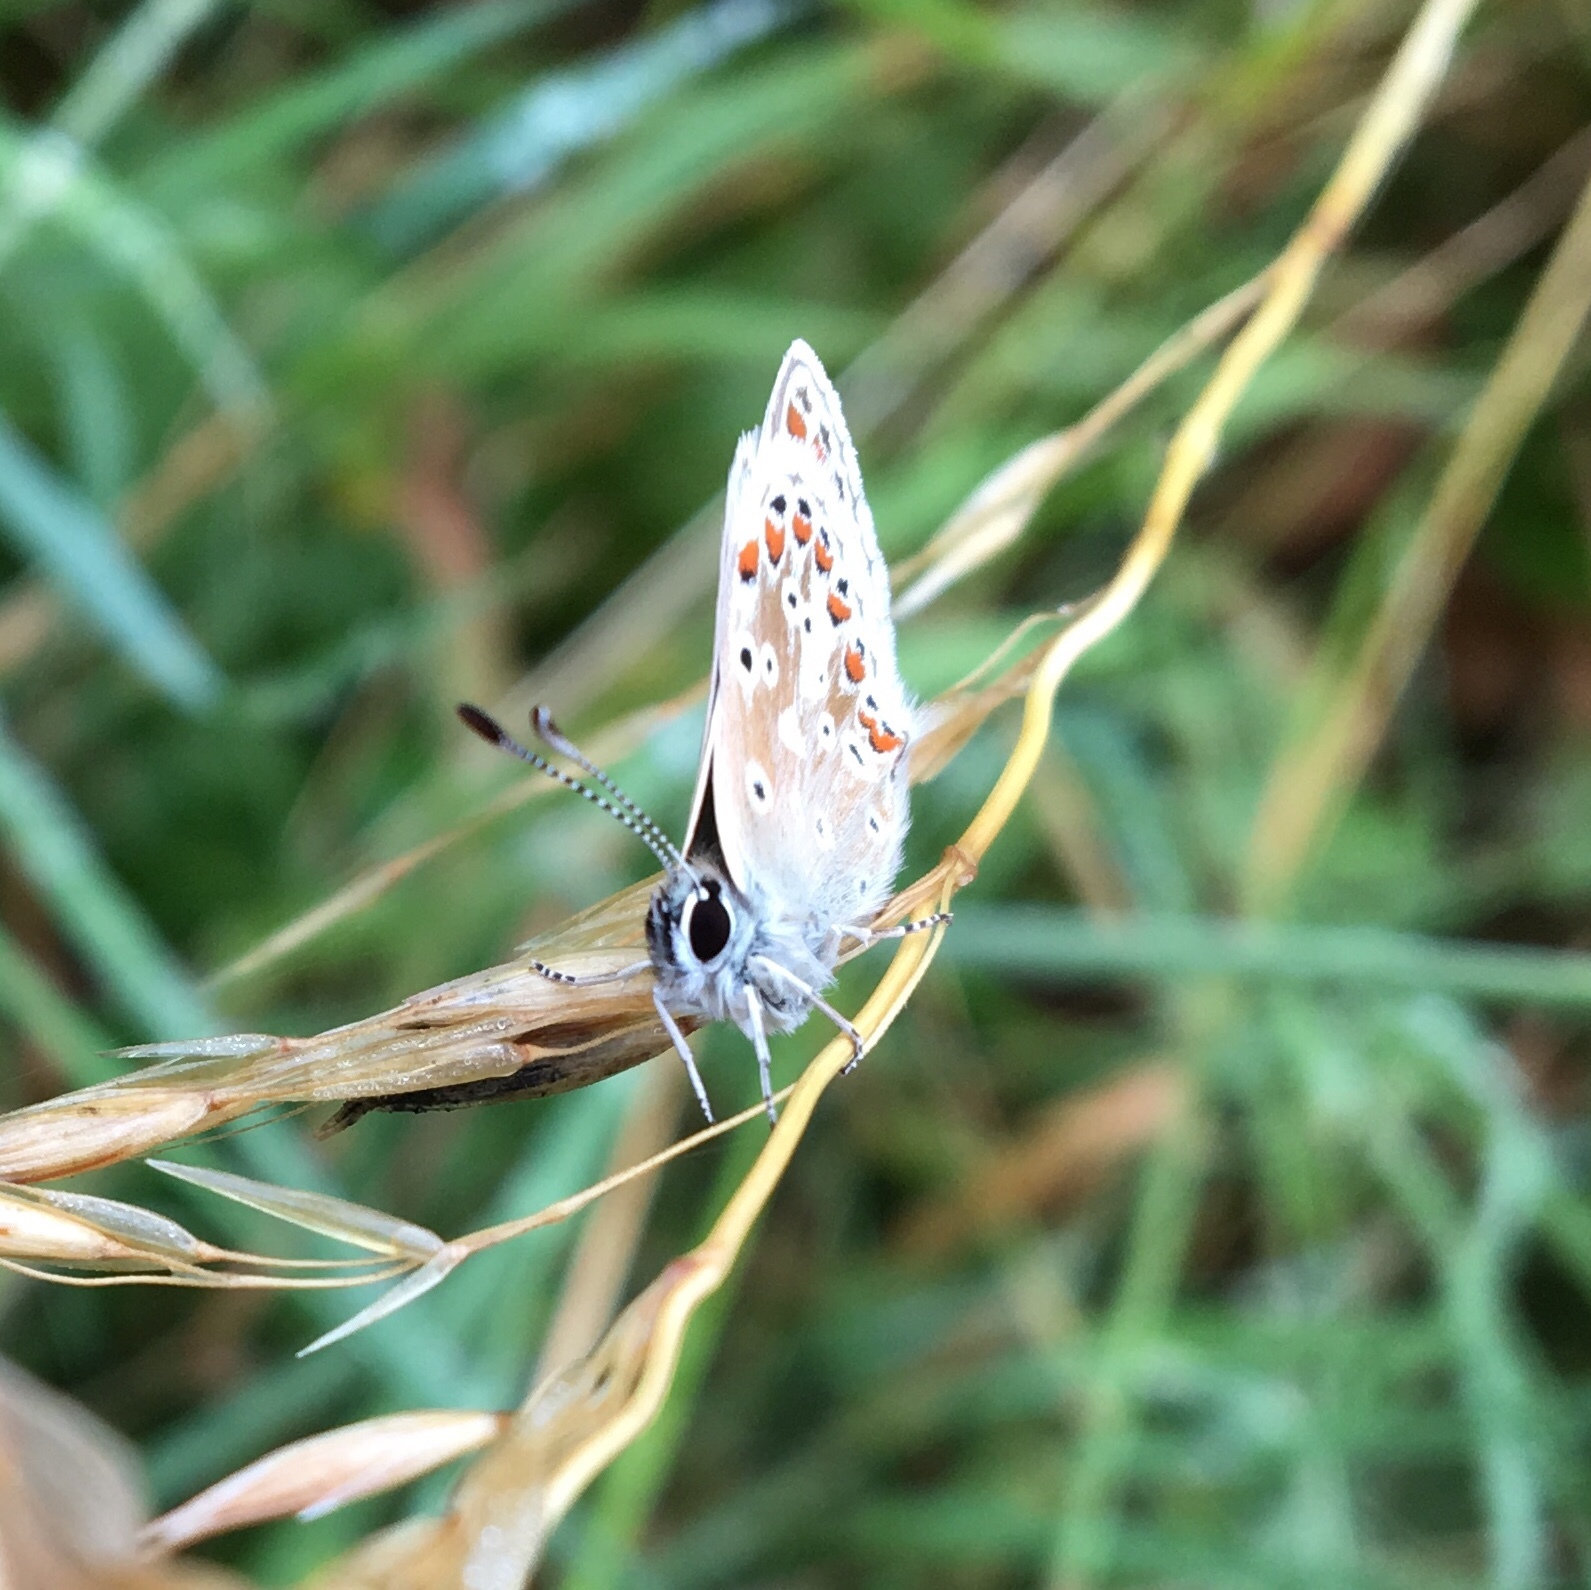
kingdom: Animalia
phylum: Arthropoda
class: Insecta
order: Lepidoptera
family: Lycaenidae
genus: Aricia
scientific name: Aricia agestis
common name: Brown argus
